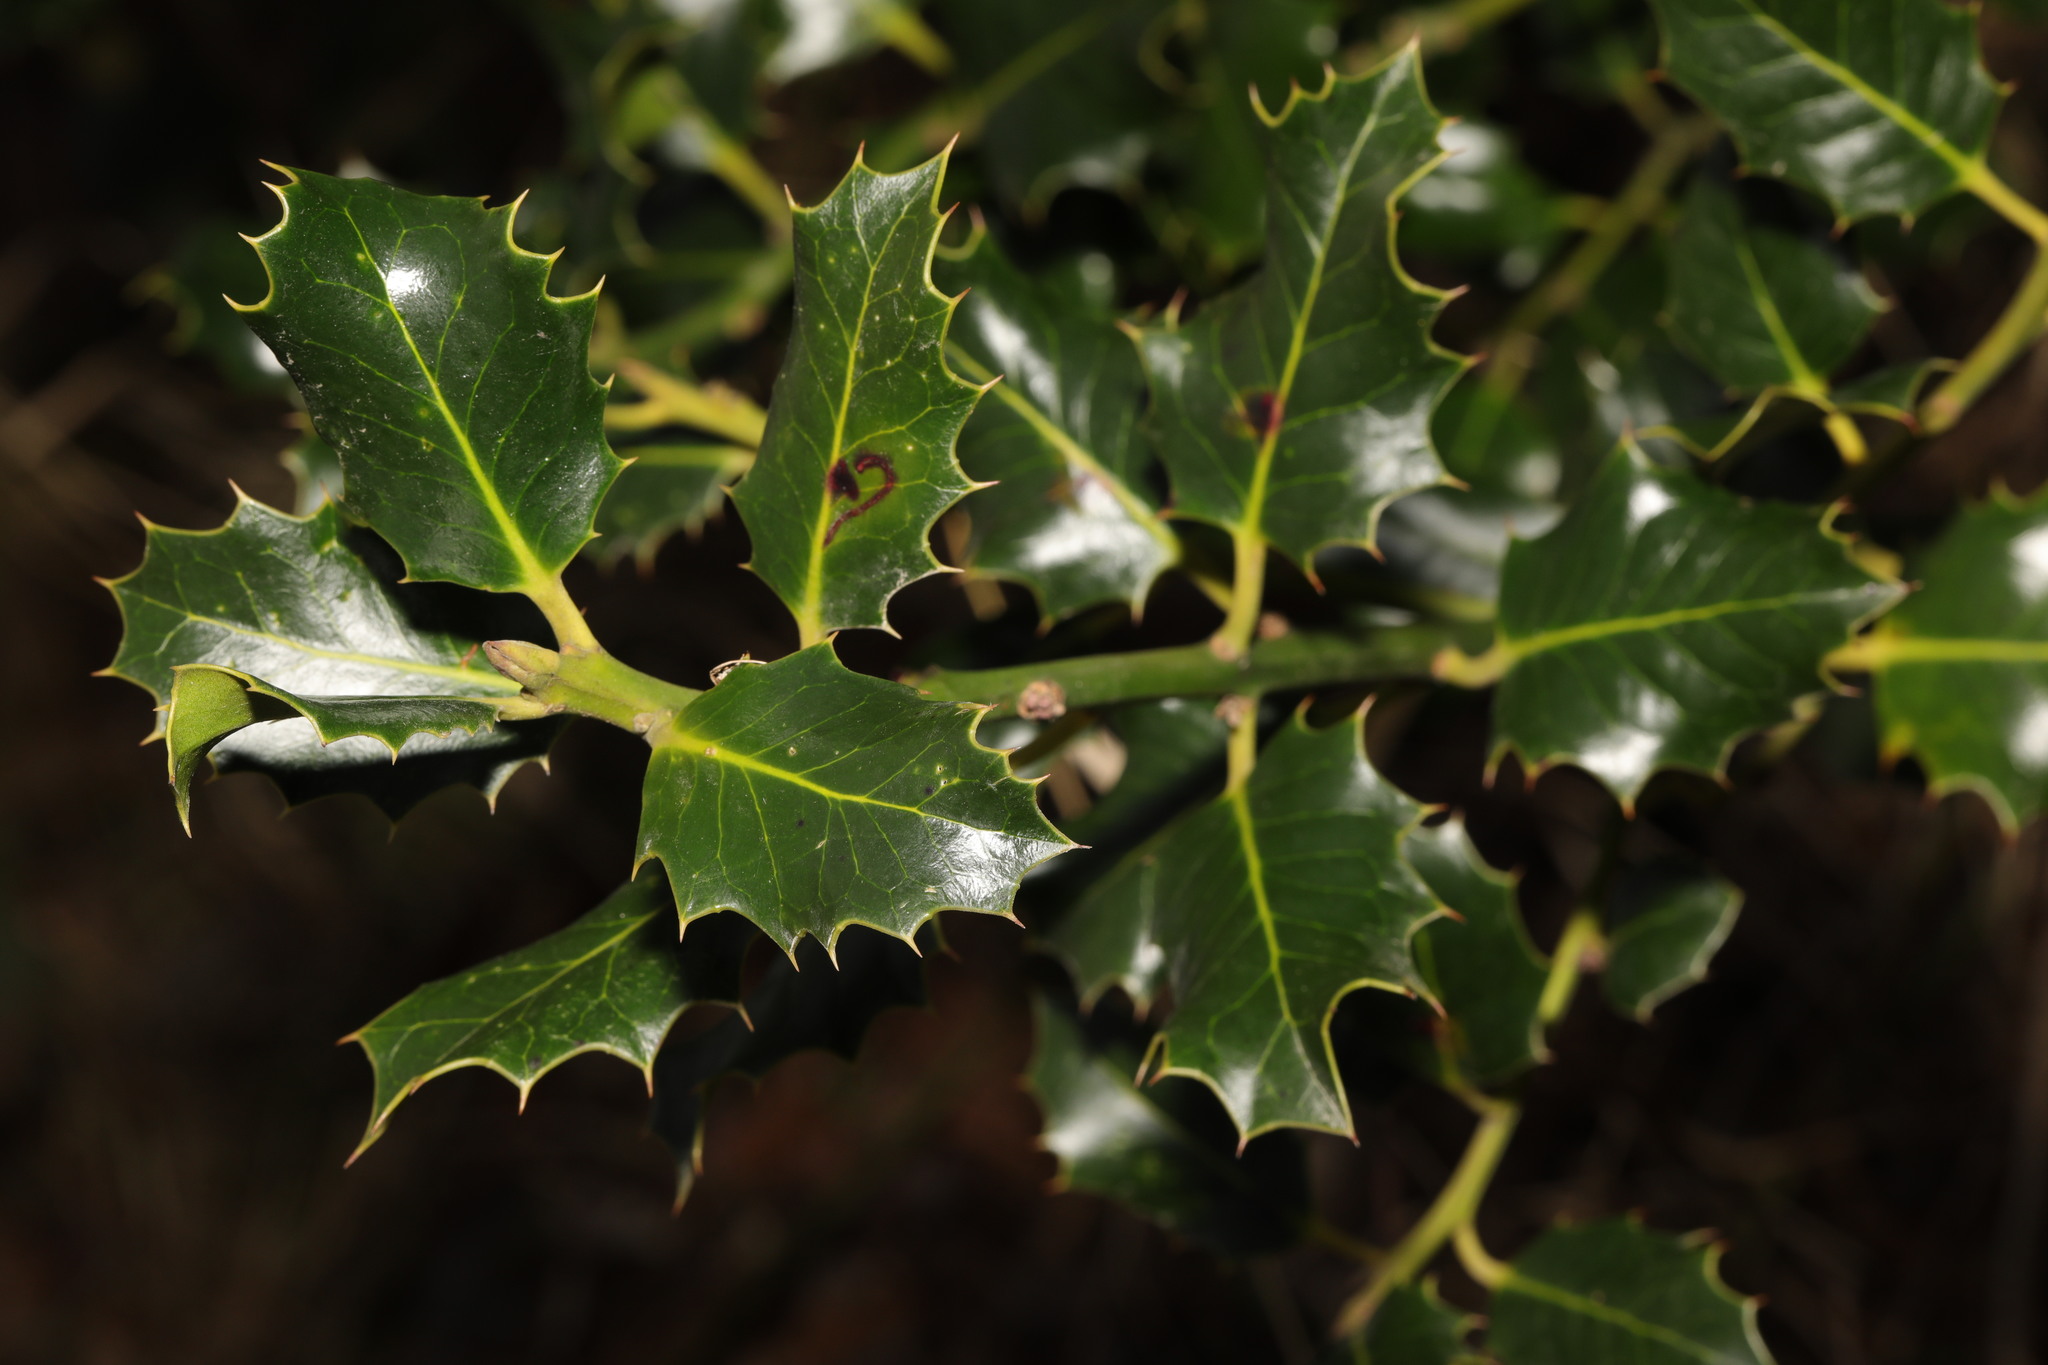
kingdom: Plantae
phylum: Tracheophyta
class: Magnoliopsida
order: Aquifoliales
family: Aquifoliaceae
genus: Ilex
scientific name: Ilex aquifolium
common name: English holly
